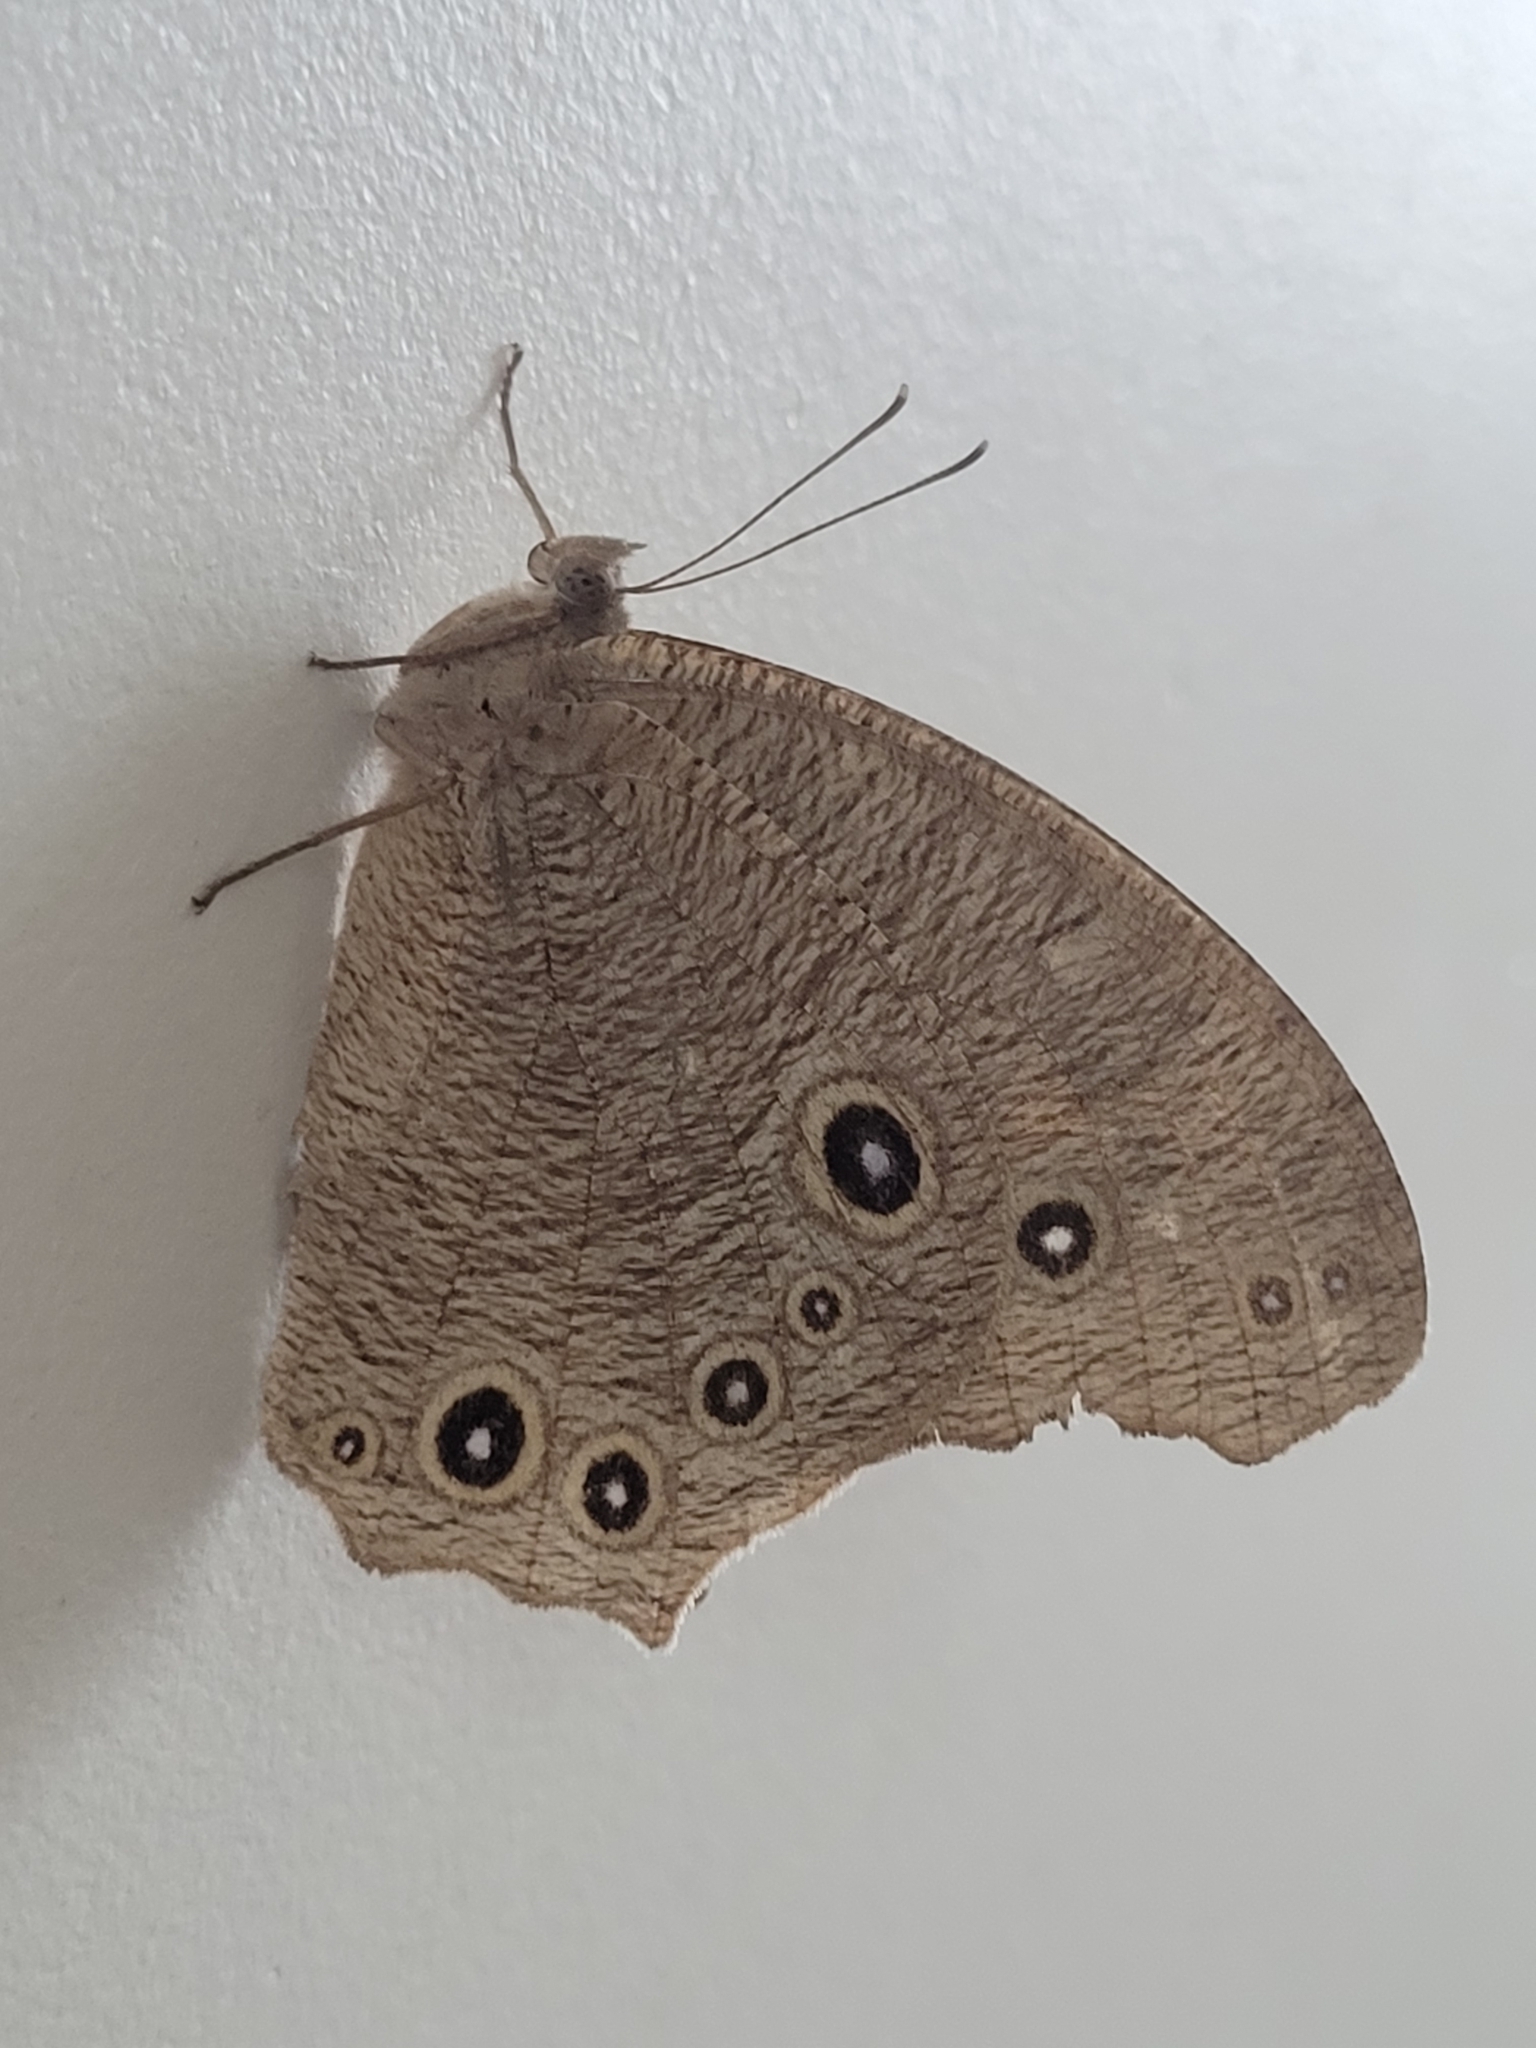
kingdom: Animalia
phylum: Arthropoda
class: Insecta
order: Lepidoptera
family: Nymphalidae
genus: Melanitis
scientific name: Melanitis leda
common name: Twilight brown
